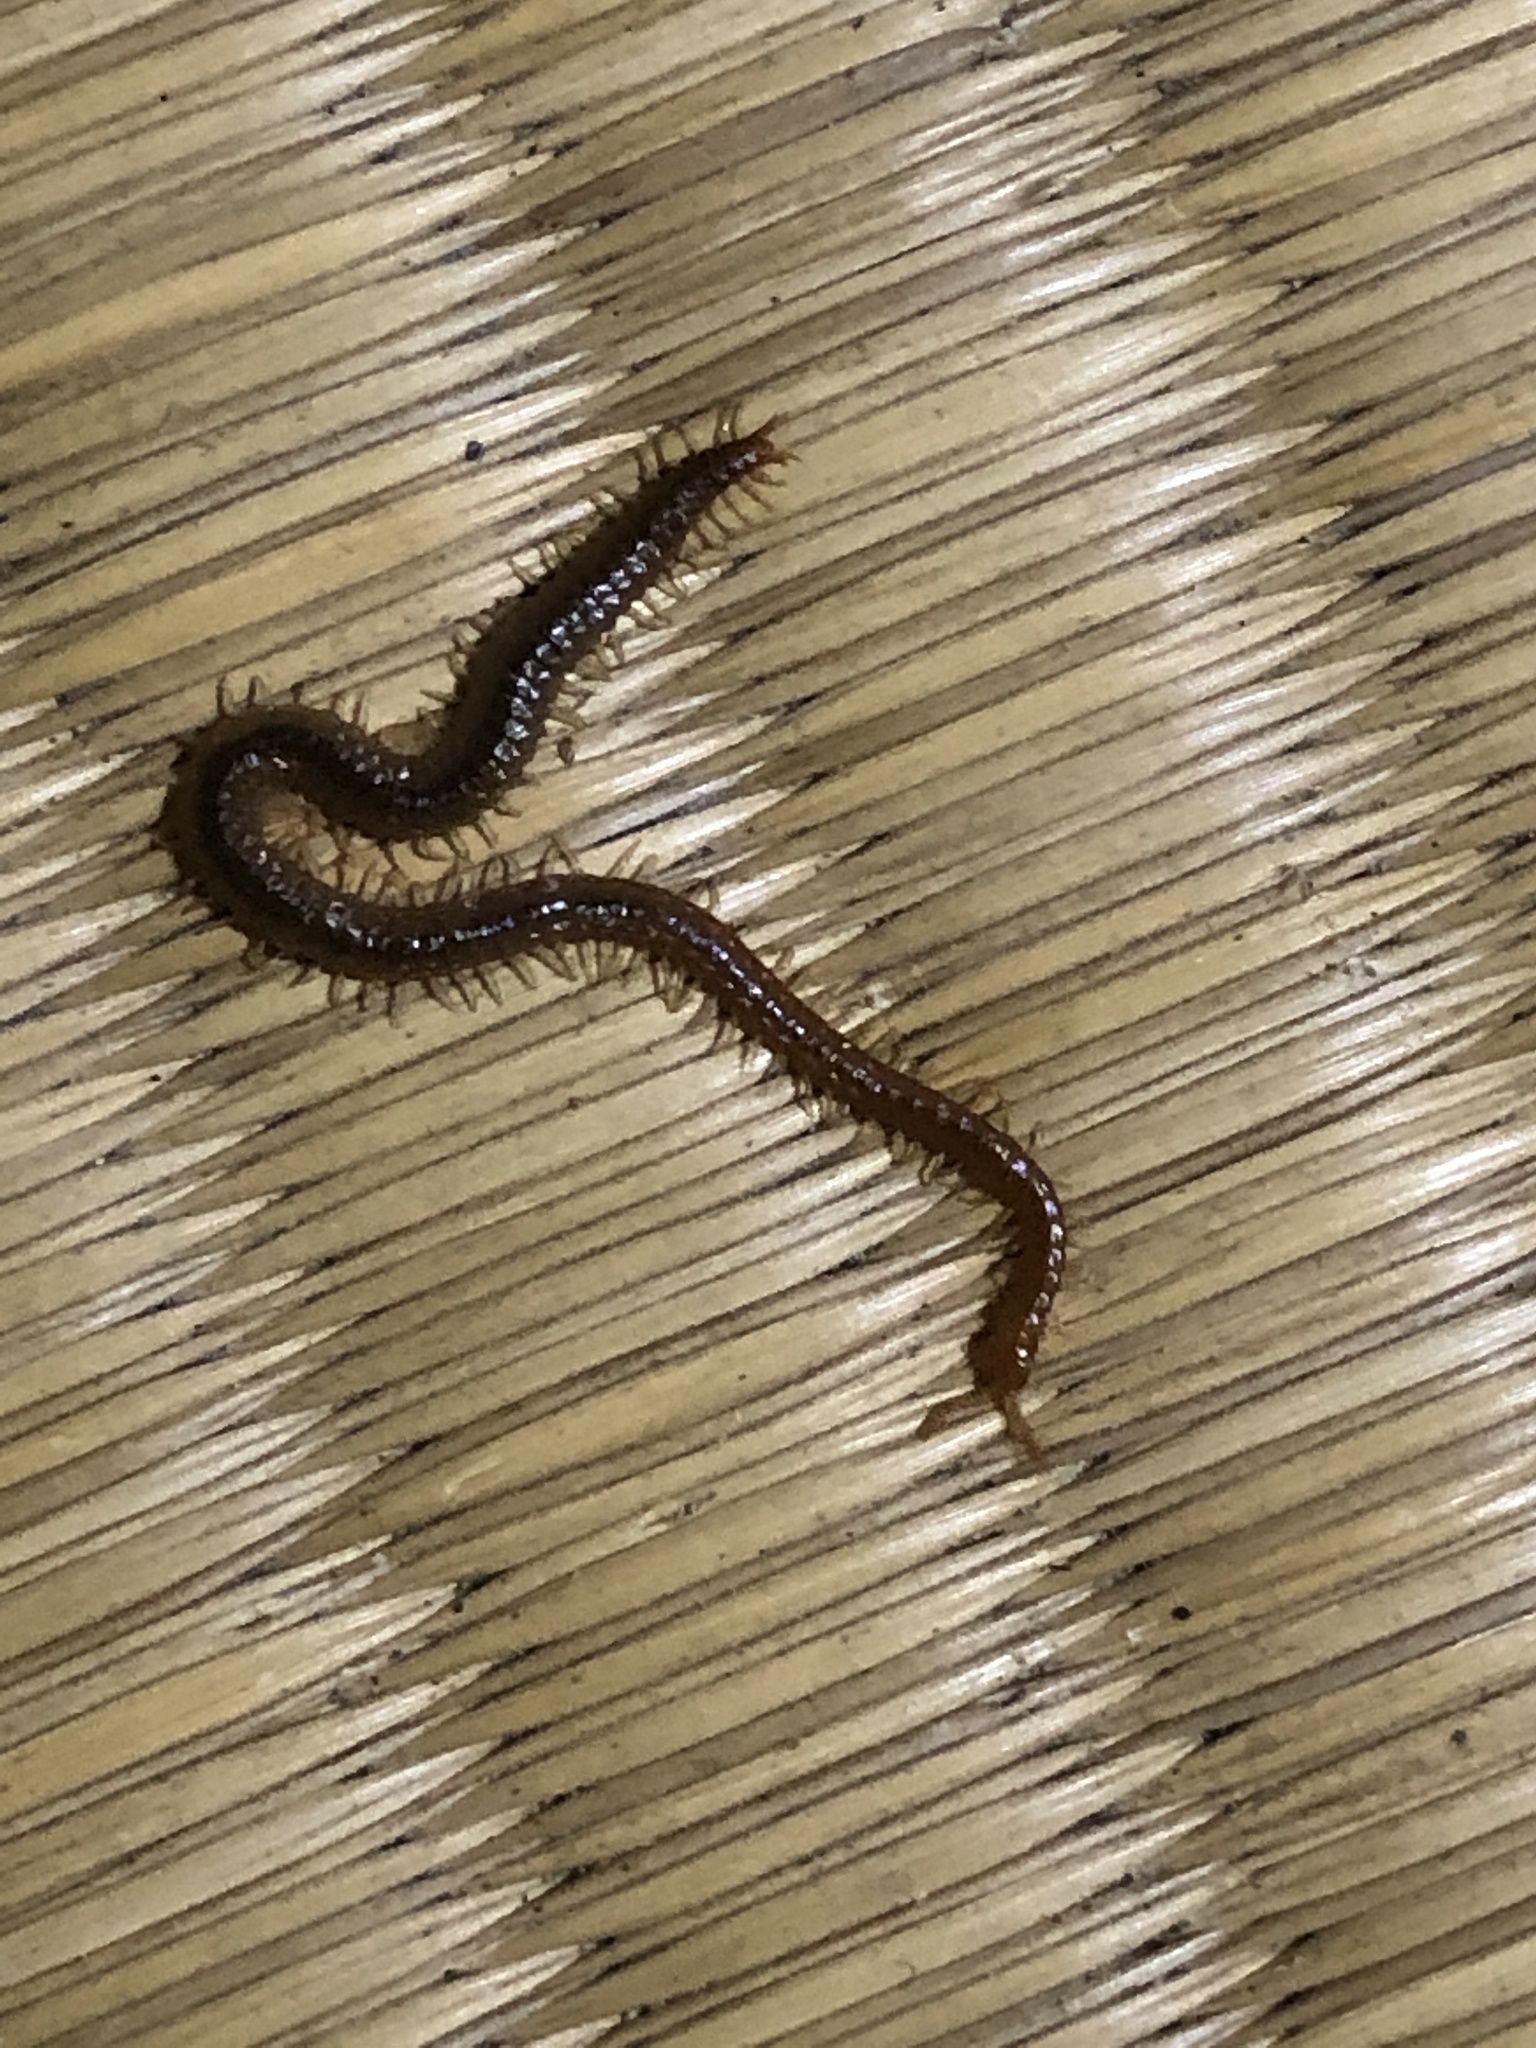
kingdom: Animalia
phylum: Arthropoda
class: Chilopoda
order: Geophilomorpha
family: Oryidae
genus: Orphnaeus
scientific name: Orphnaeus brevilabiatus
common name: Centipede
